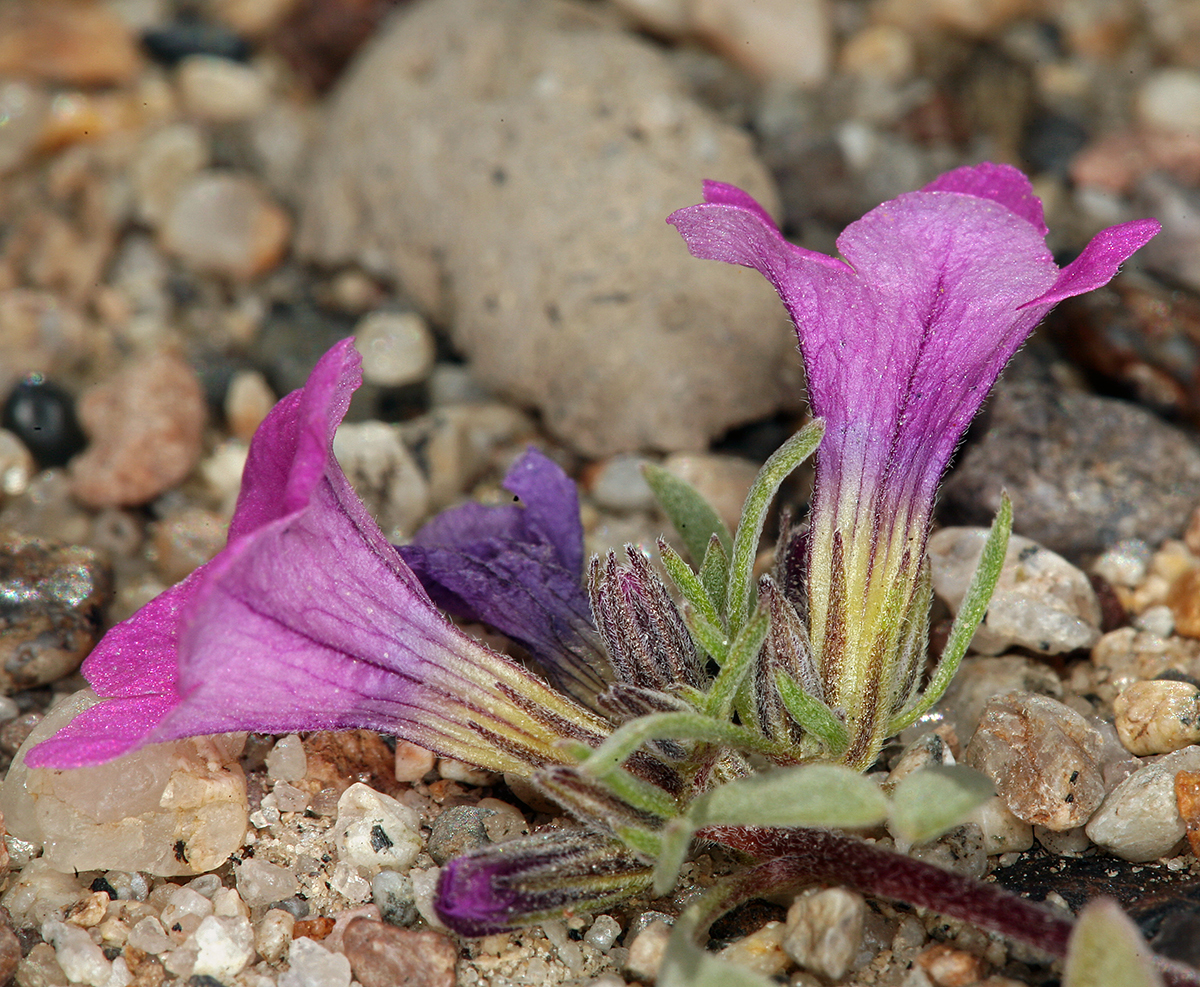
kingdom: Plantae
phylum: Tracheophyta
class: Magnoliopsida
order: Boraginales
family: Namaceae
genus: Nama
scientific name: Nama demissa
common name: Leafy nama
